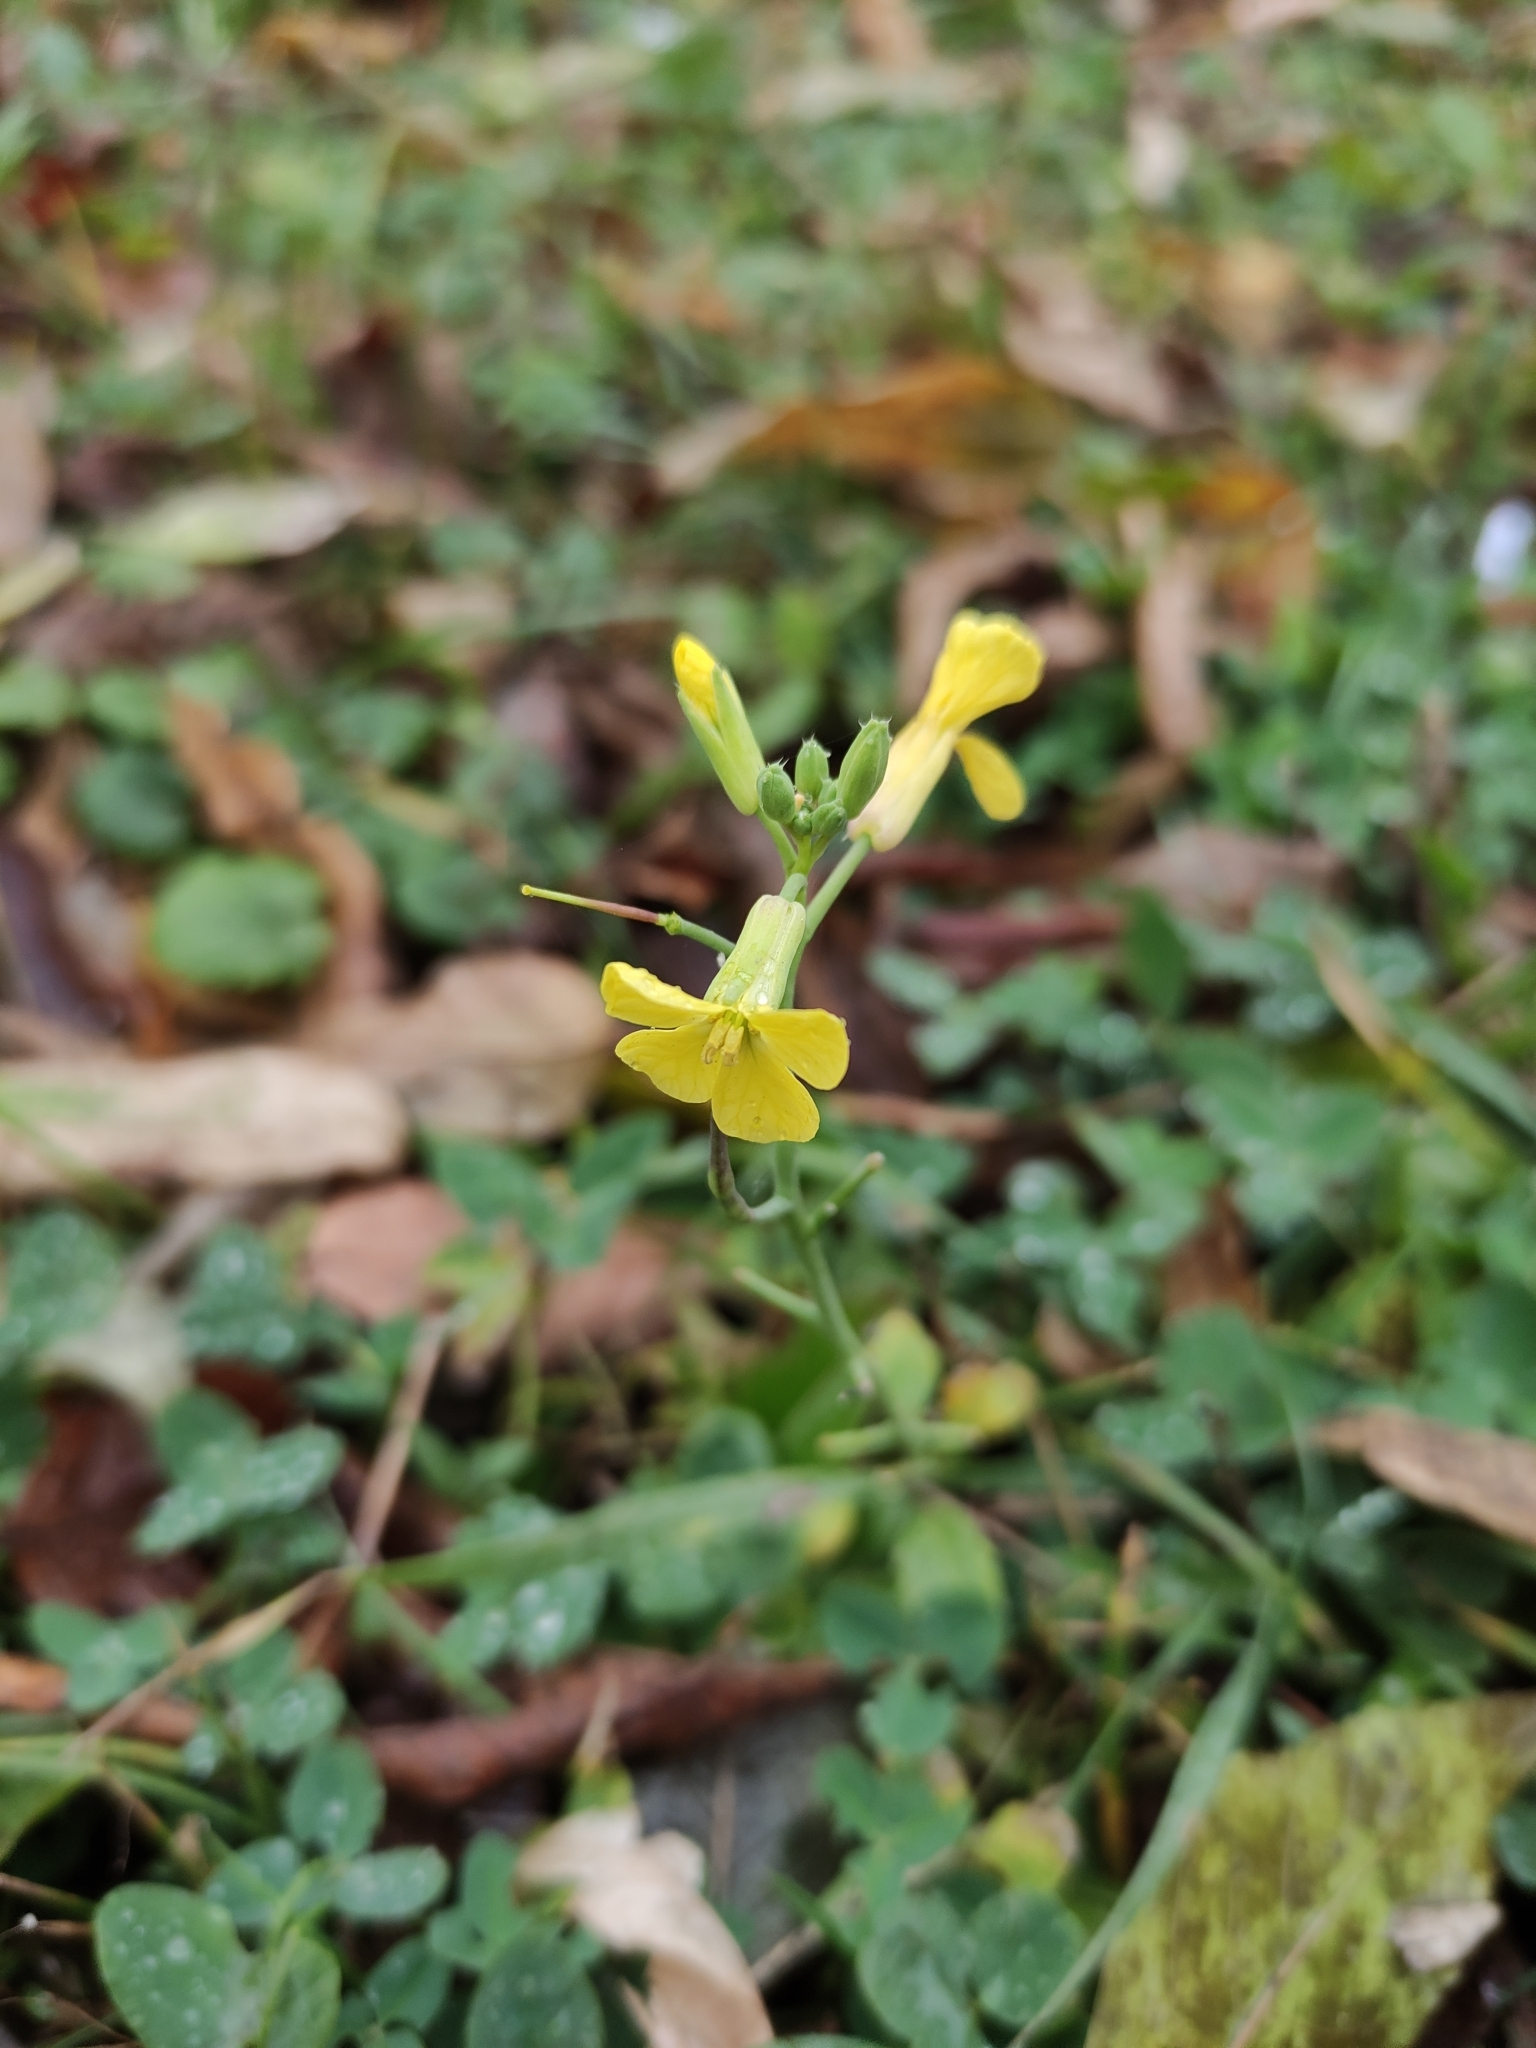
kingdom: Plantae
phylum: Tracheophyta
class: Magnoliopsida
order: Brassicales
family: Brassicaceae
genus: Raphanus
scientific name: Raphanus raphanistrum
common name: Wild radish
